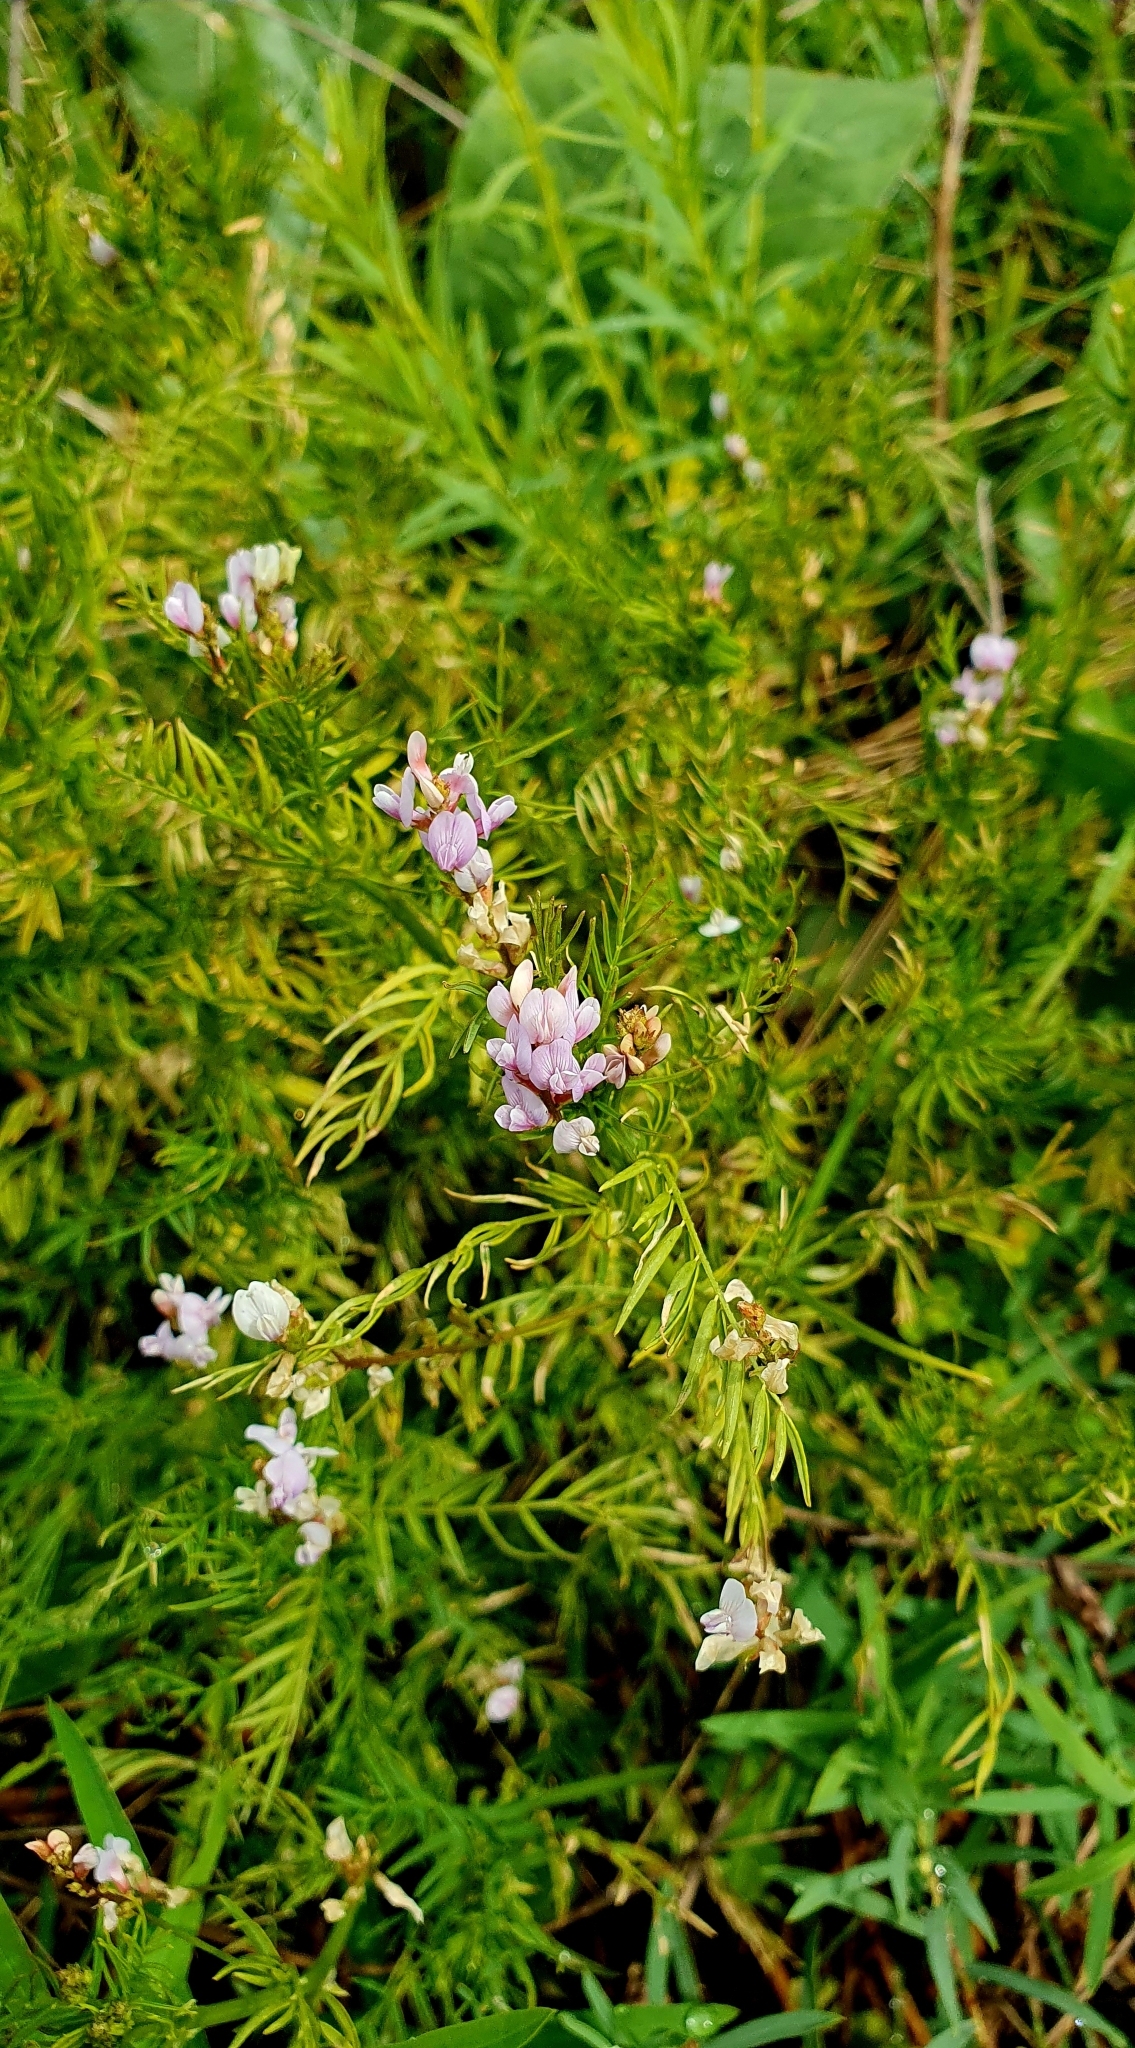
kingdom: Plantae
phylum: Tracheophyta
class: Magnoliopsida
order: Fabales
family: Fabaceae
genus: Astragalus
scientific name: Astragalus sulcatus
